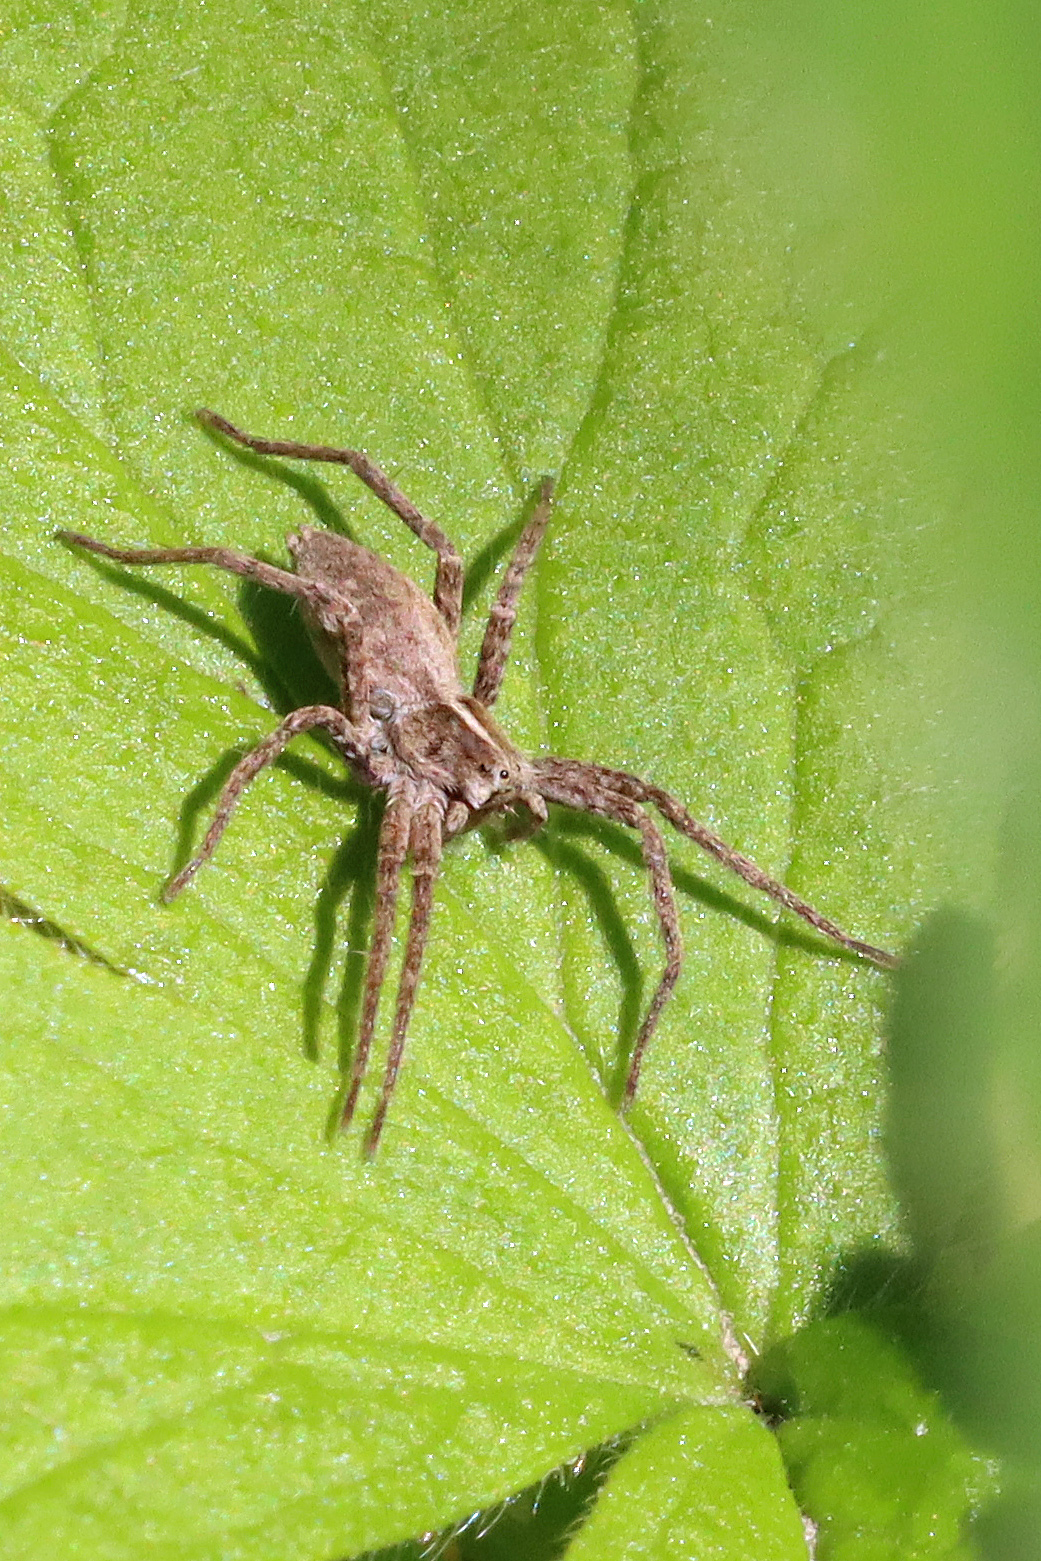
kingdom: Animalia
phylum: Arthropoda
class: Arachnida
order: Araneae
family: Pisauridae
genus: Pisaura
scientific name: Pisaura mirabilis
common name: Tent spider
